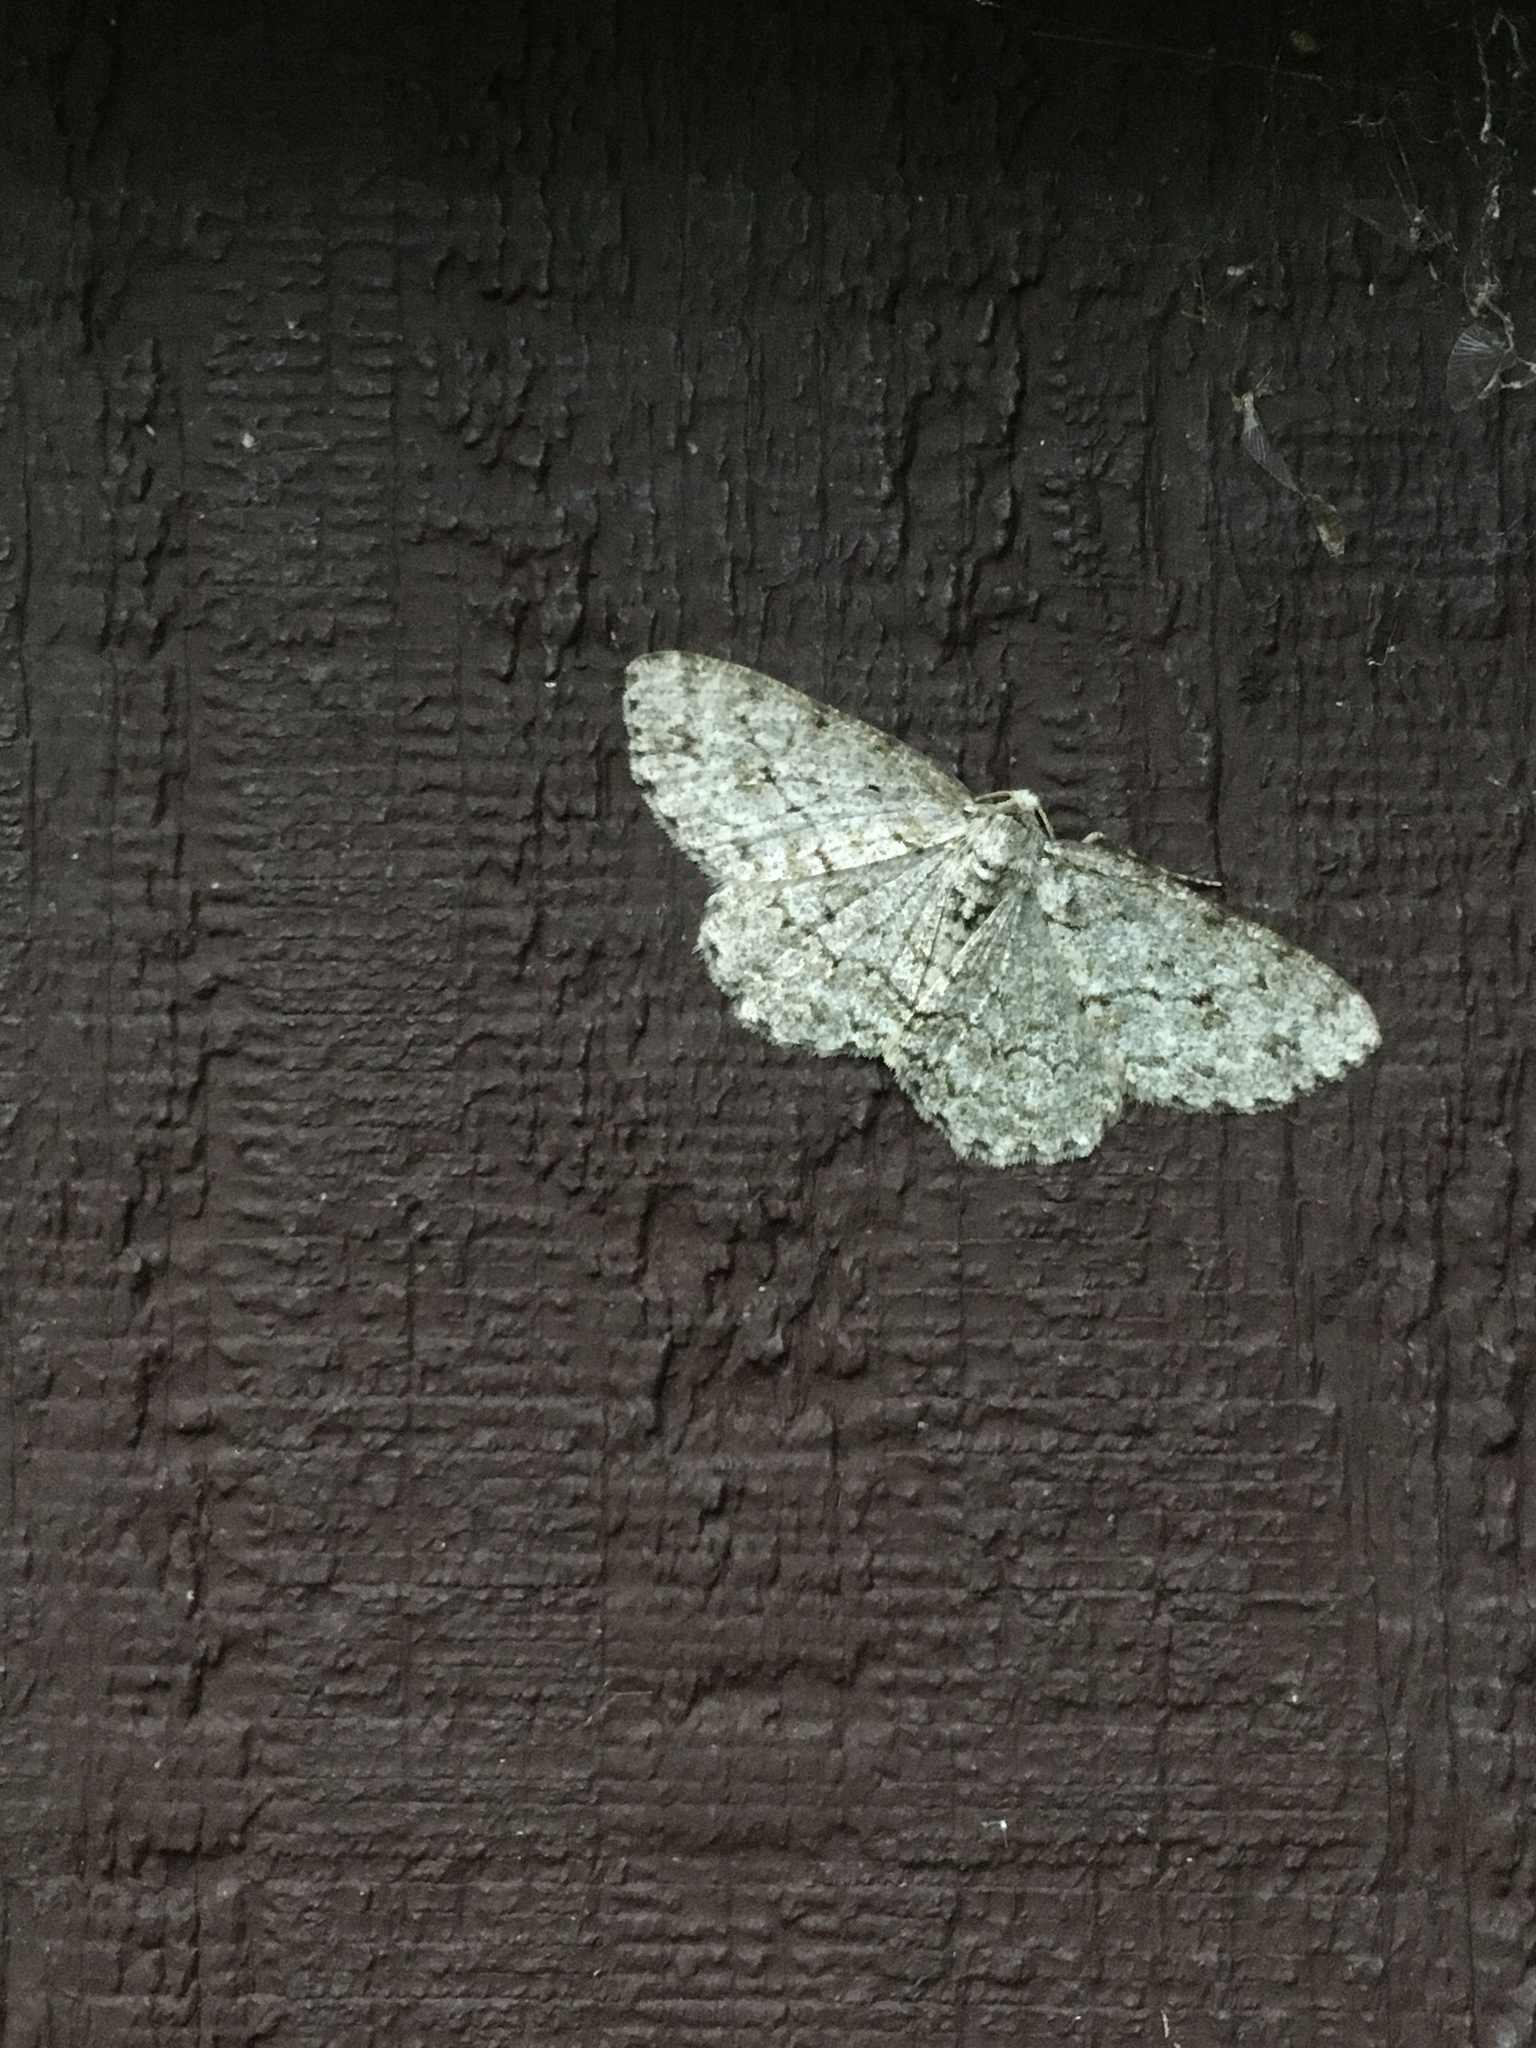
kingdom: Animalia
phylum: Arthropoda
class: Insecta
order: Lepidoptera
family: Geometridae
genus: Ectropis
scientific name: Ectropis crepuscularia
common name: Engrailed
